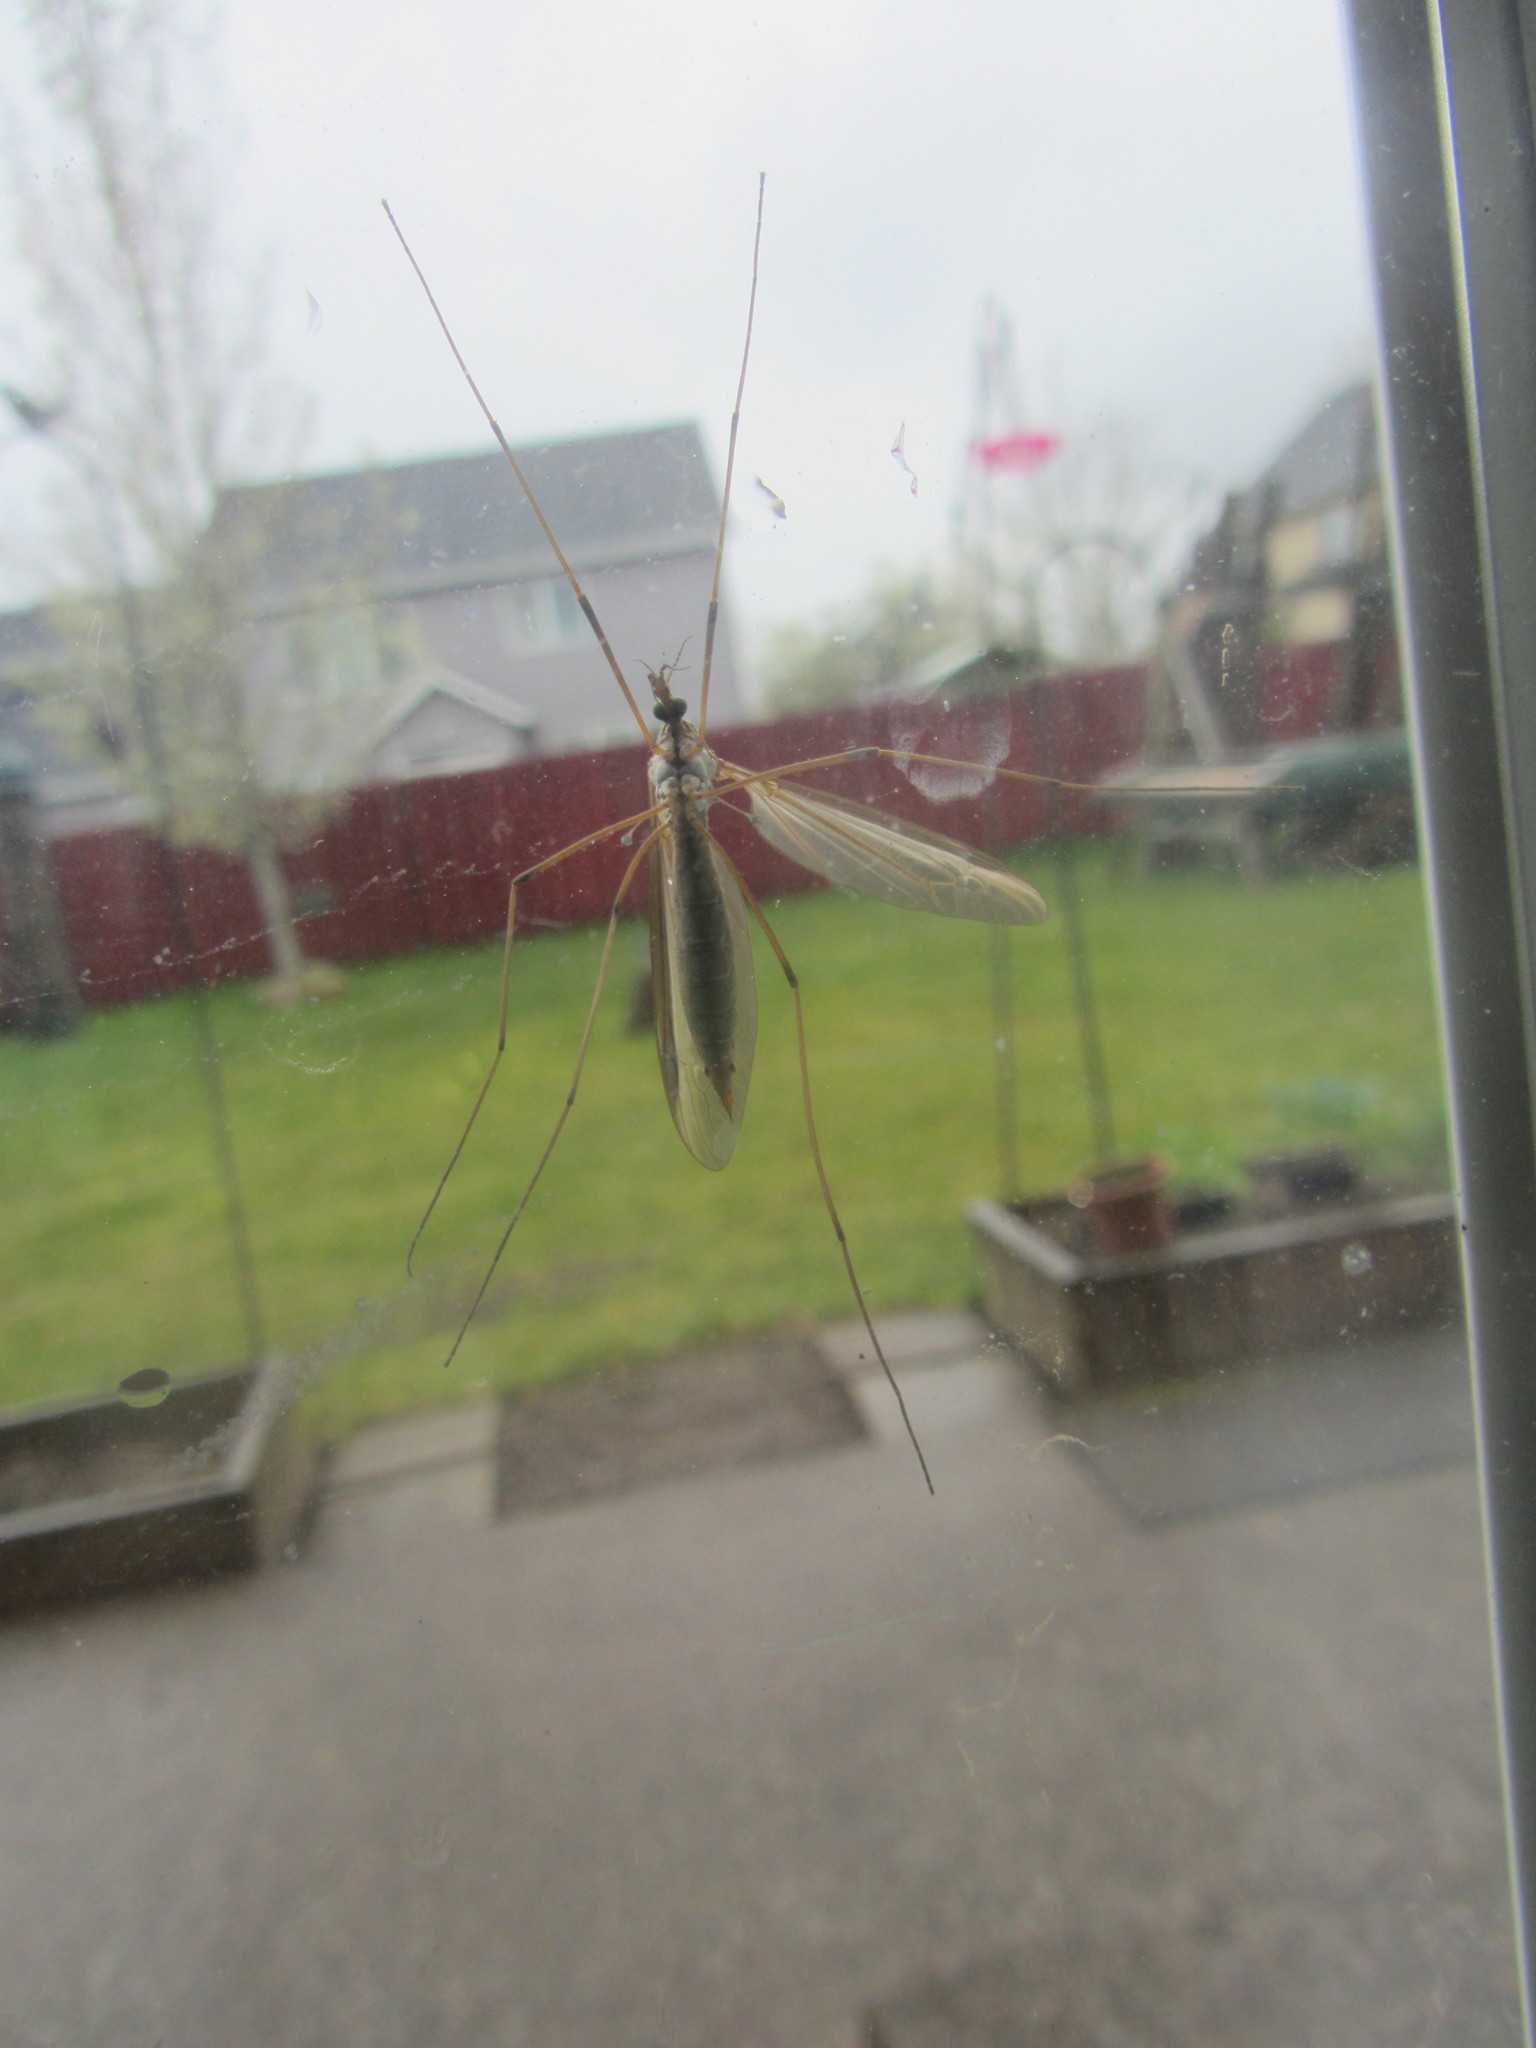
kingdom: Animalia
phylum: Arthropoda
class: Insecta
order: Diptera
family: Tipulidae
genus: Tipula
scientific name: Tipula oleracea
